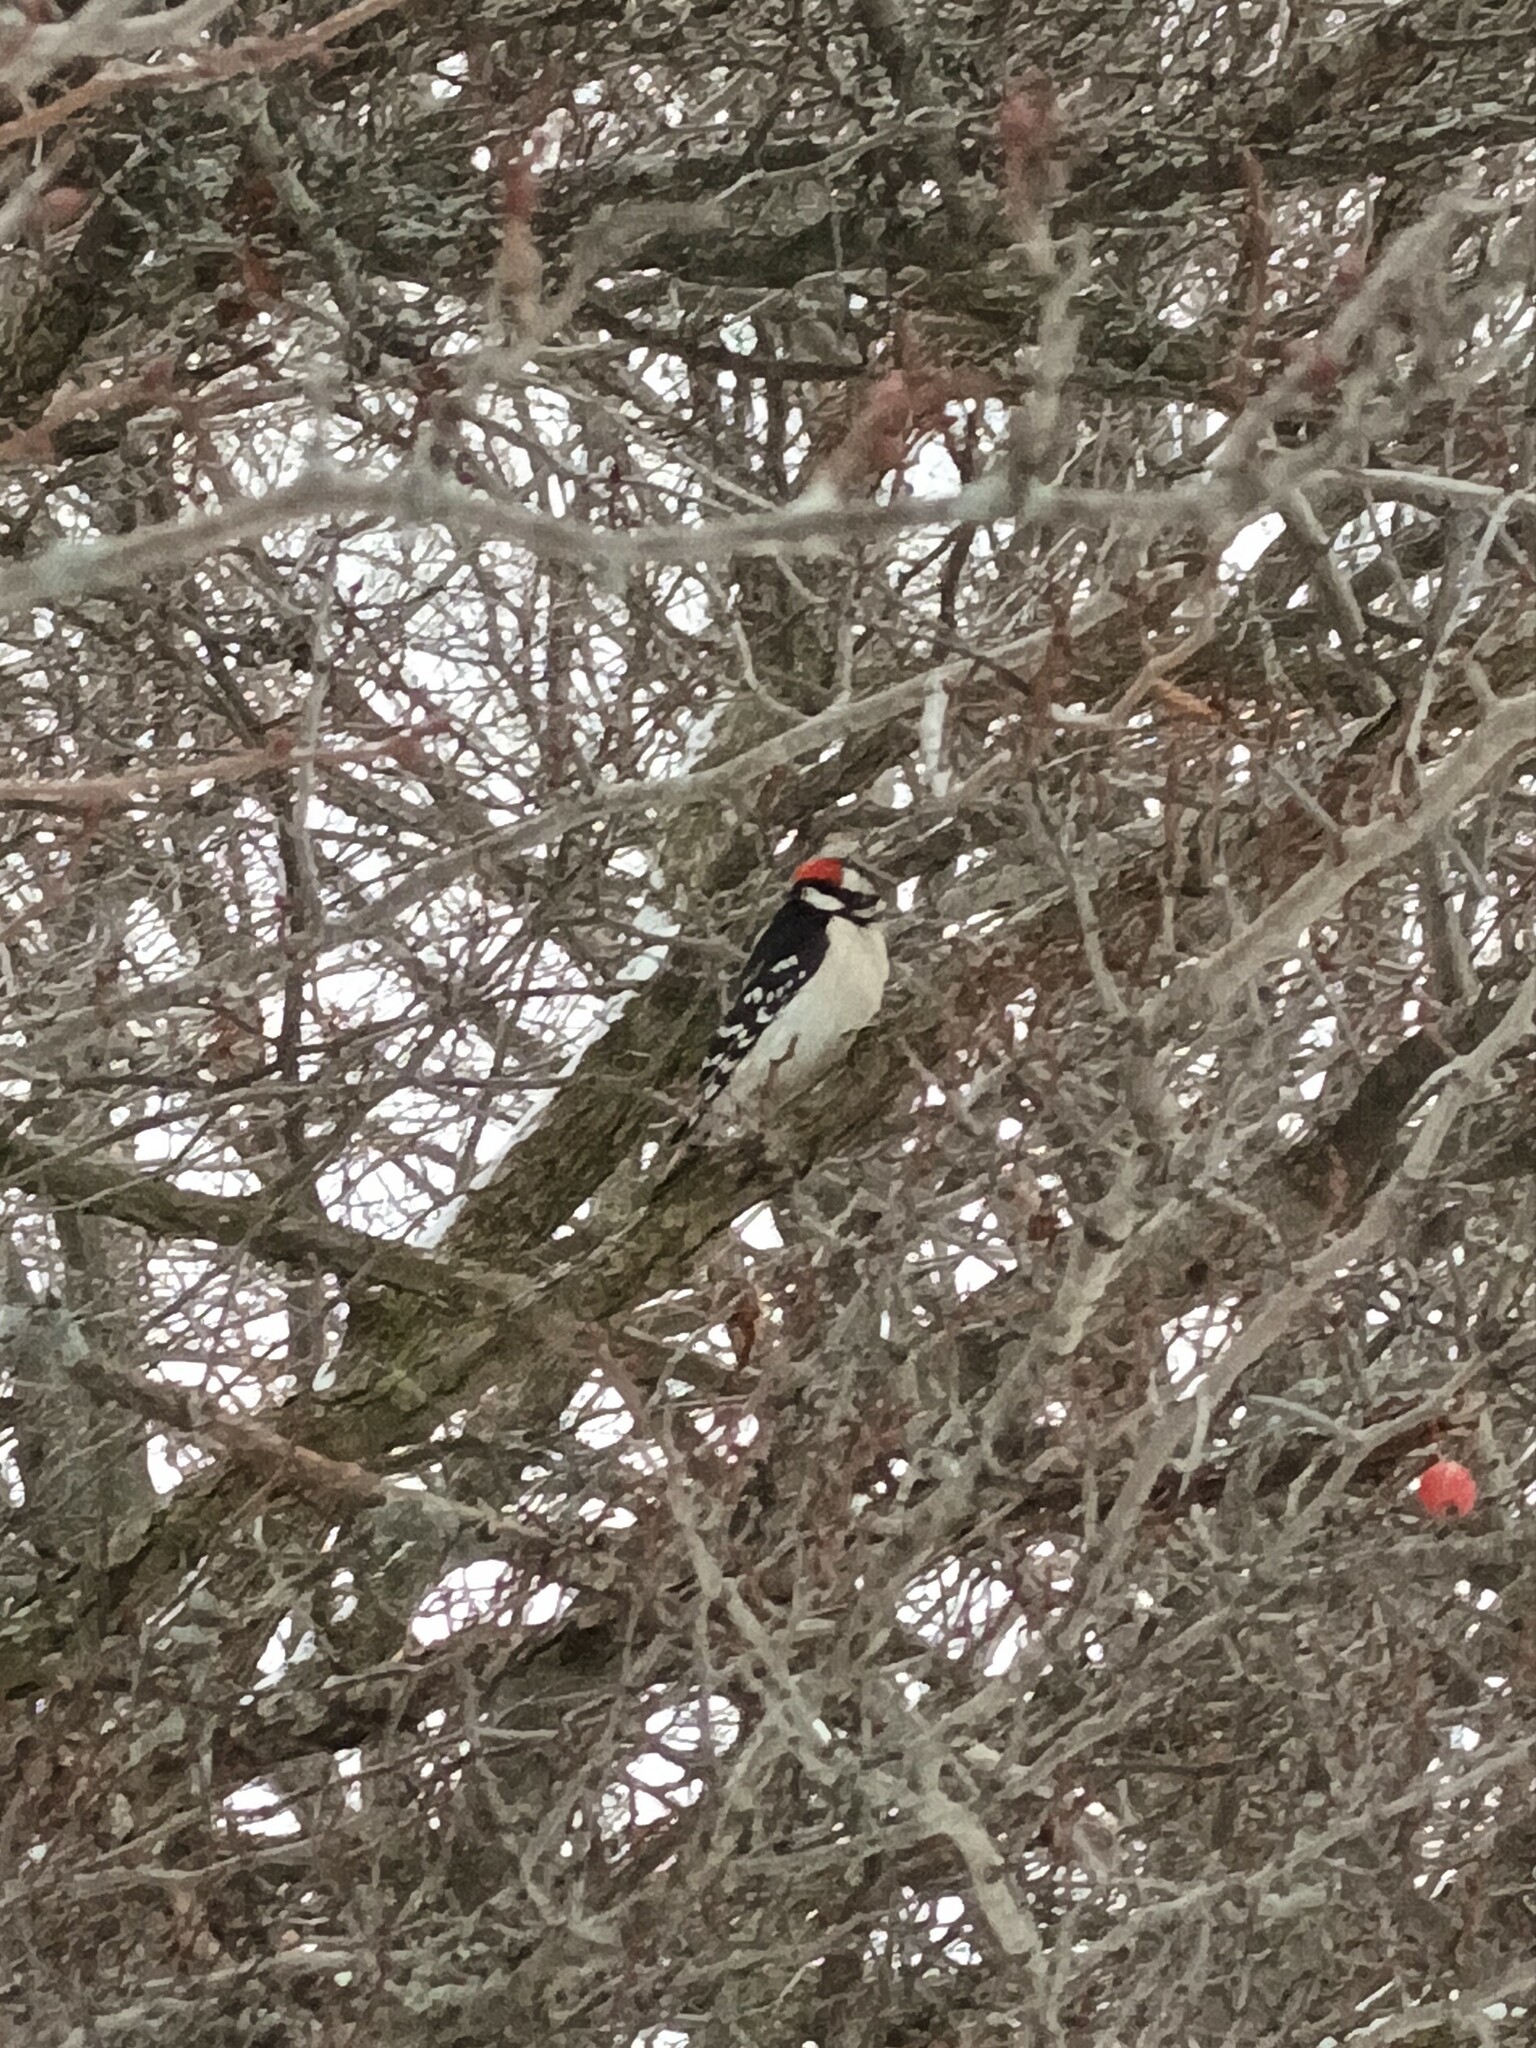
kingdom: Animalia
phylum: Chordata
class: Aves
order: Piciformes
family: Picidae
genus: Dryobates
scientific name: Dryobates pubescens
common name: Downy woodpecker
